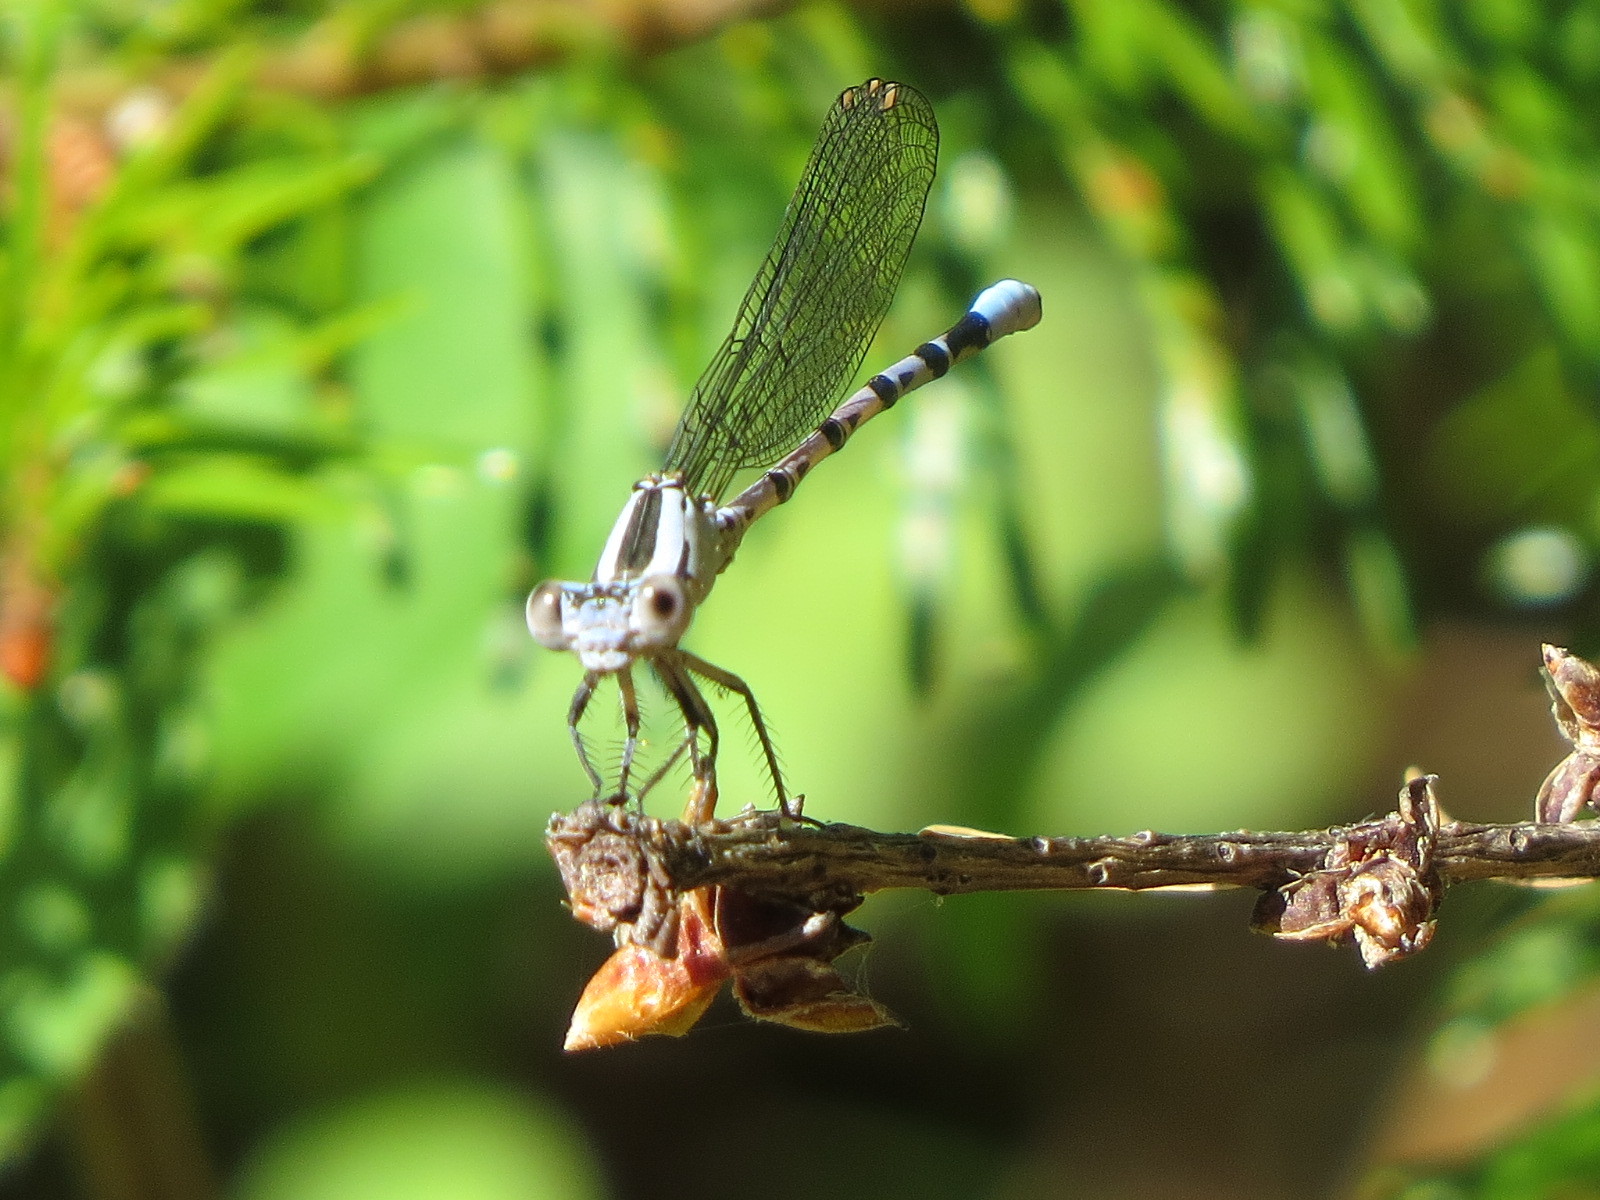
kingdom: Animalia
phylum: Arthropoda
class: Insecta
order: Odonata
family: Coenagrionidae
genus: Argia
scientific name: Argia vivida
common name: Vivid dancer
